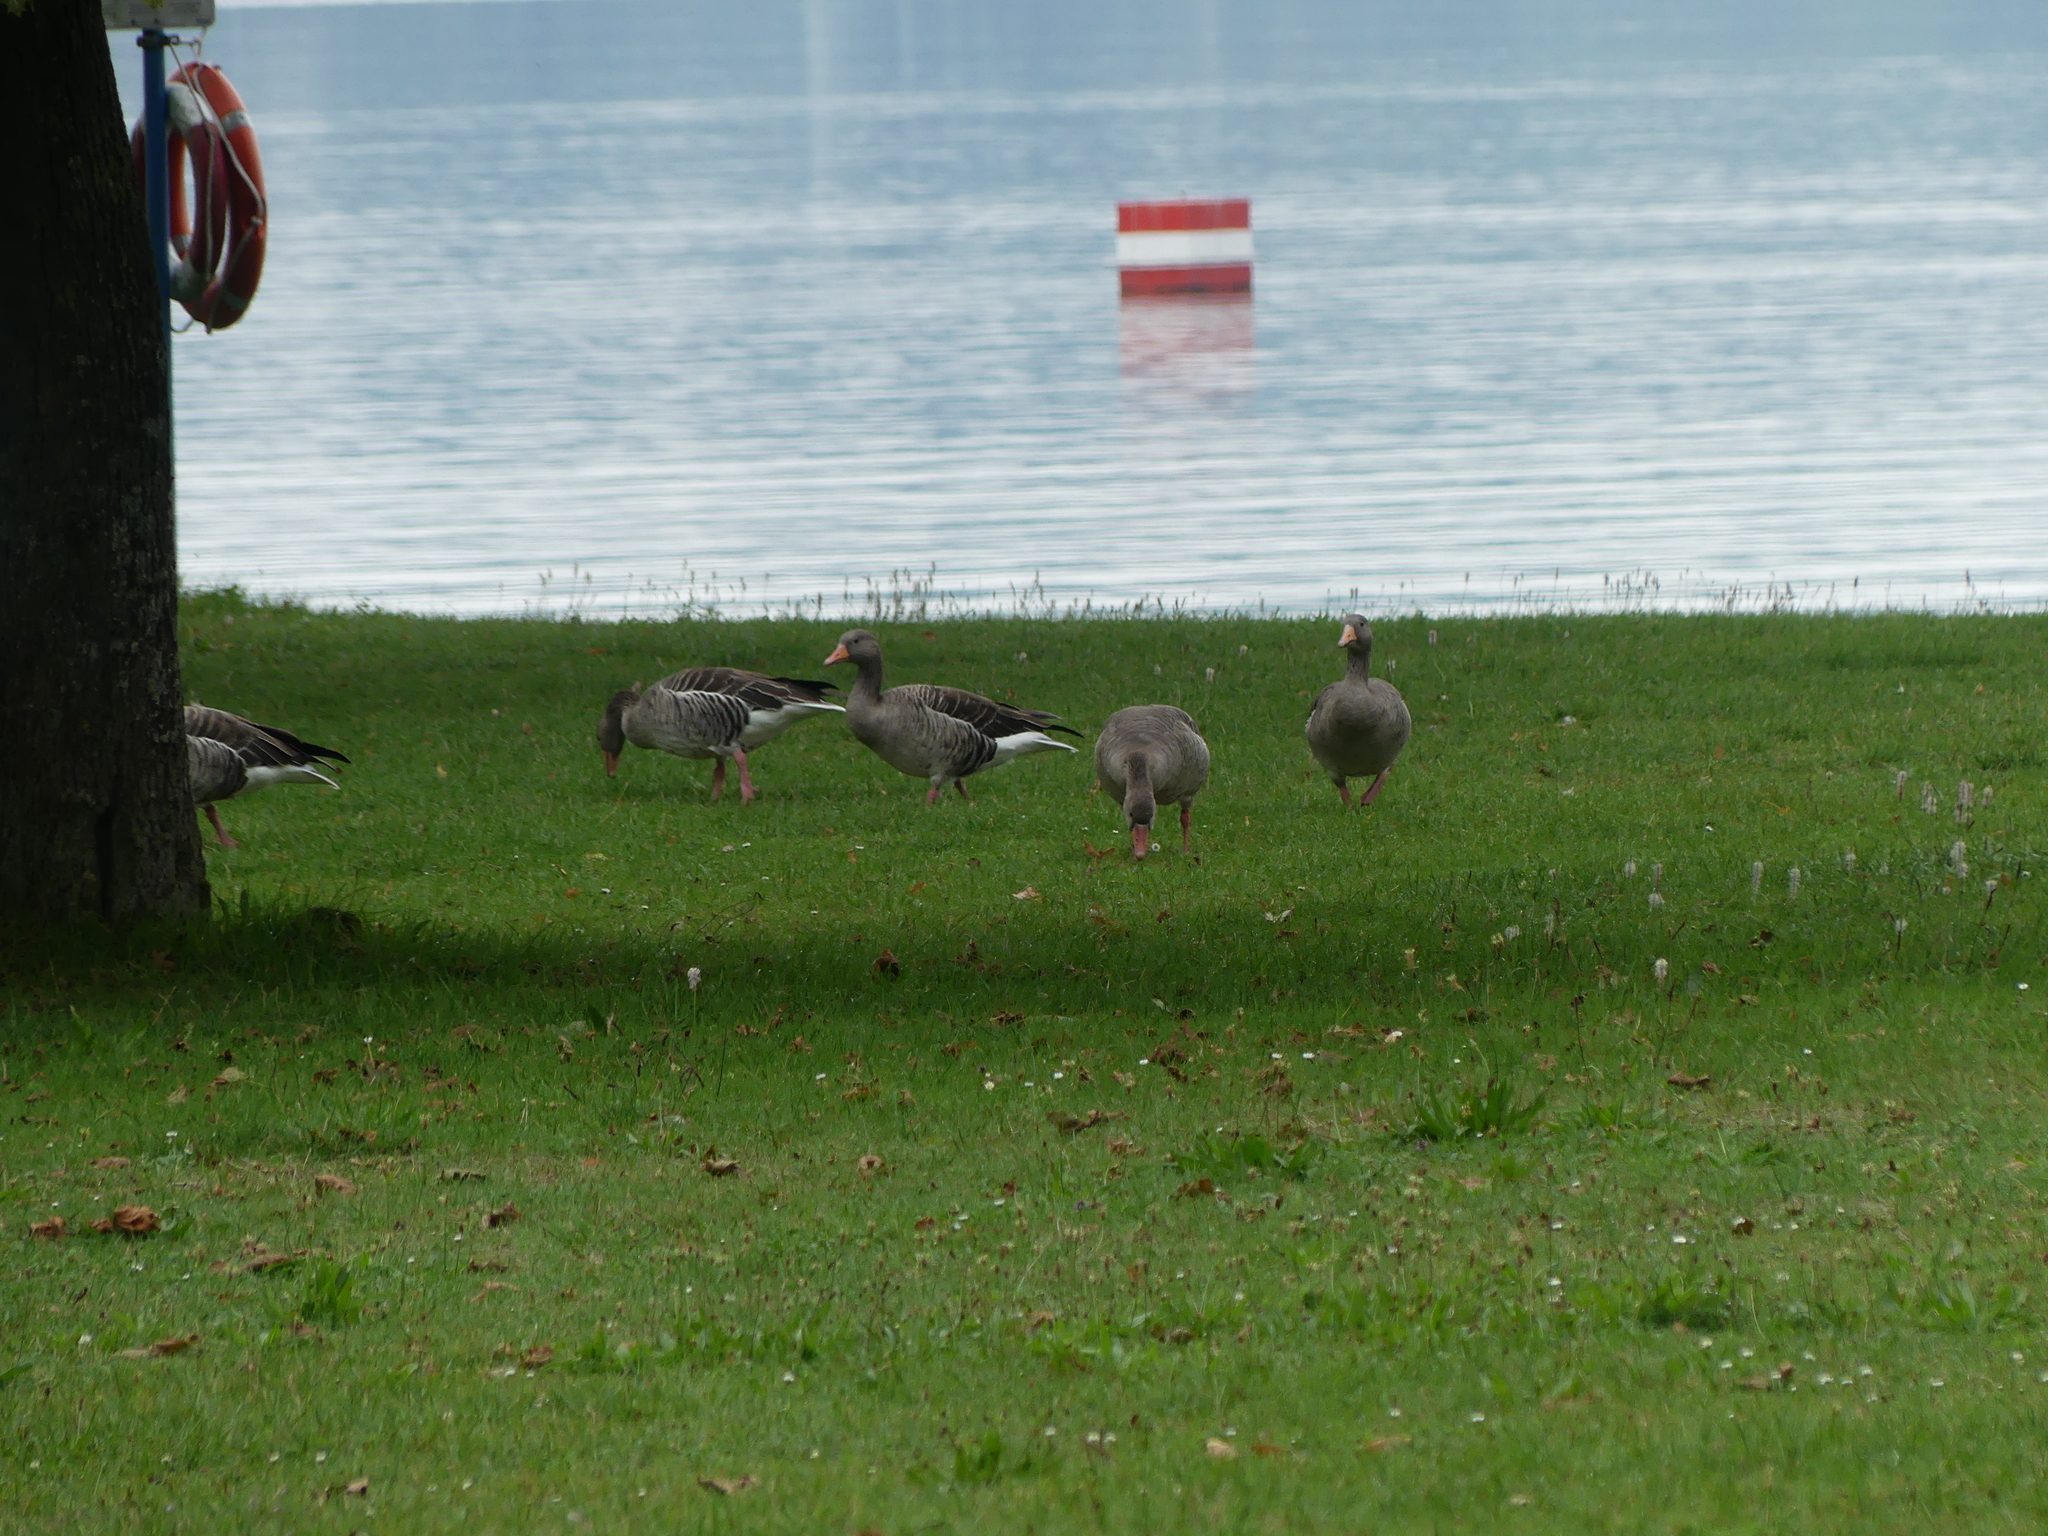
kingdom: Animalia
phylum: Chordata
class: Aves
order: Anseriformes
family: Anatidae
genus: Anser
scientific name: Anser anser
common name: Greylag goose
